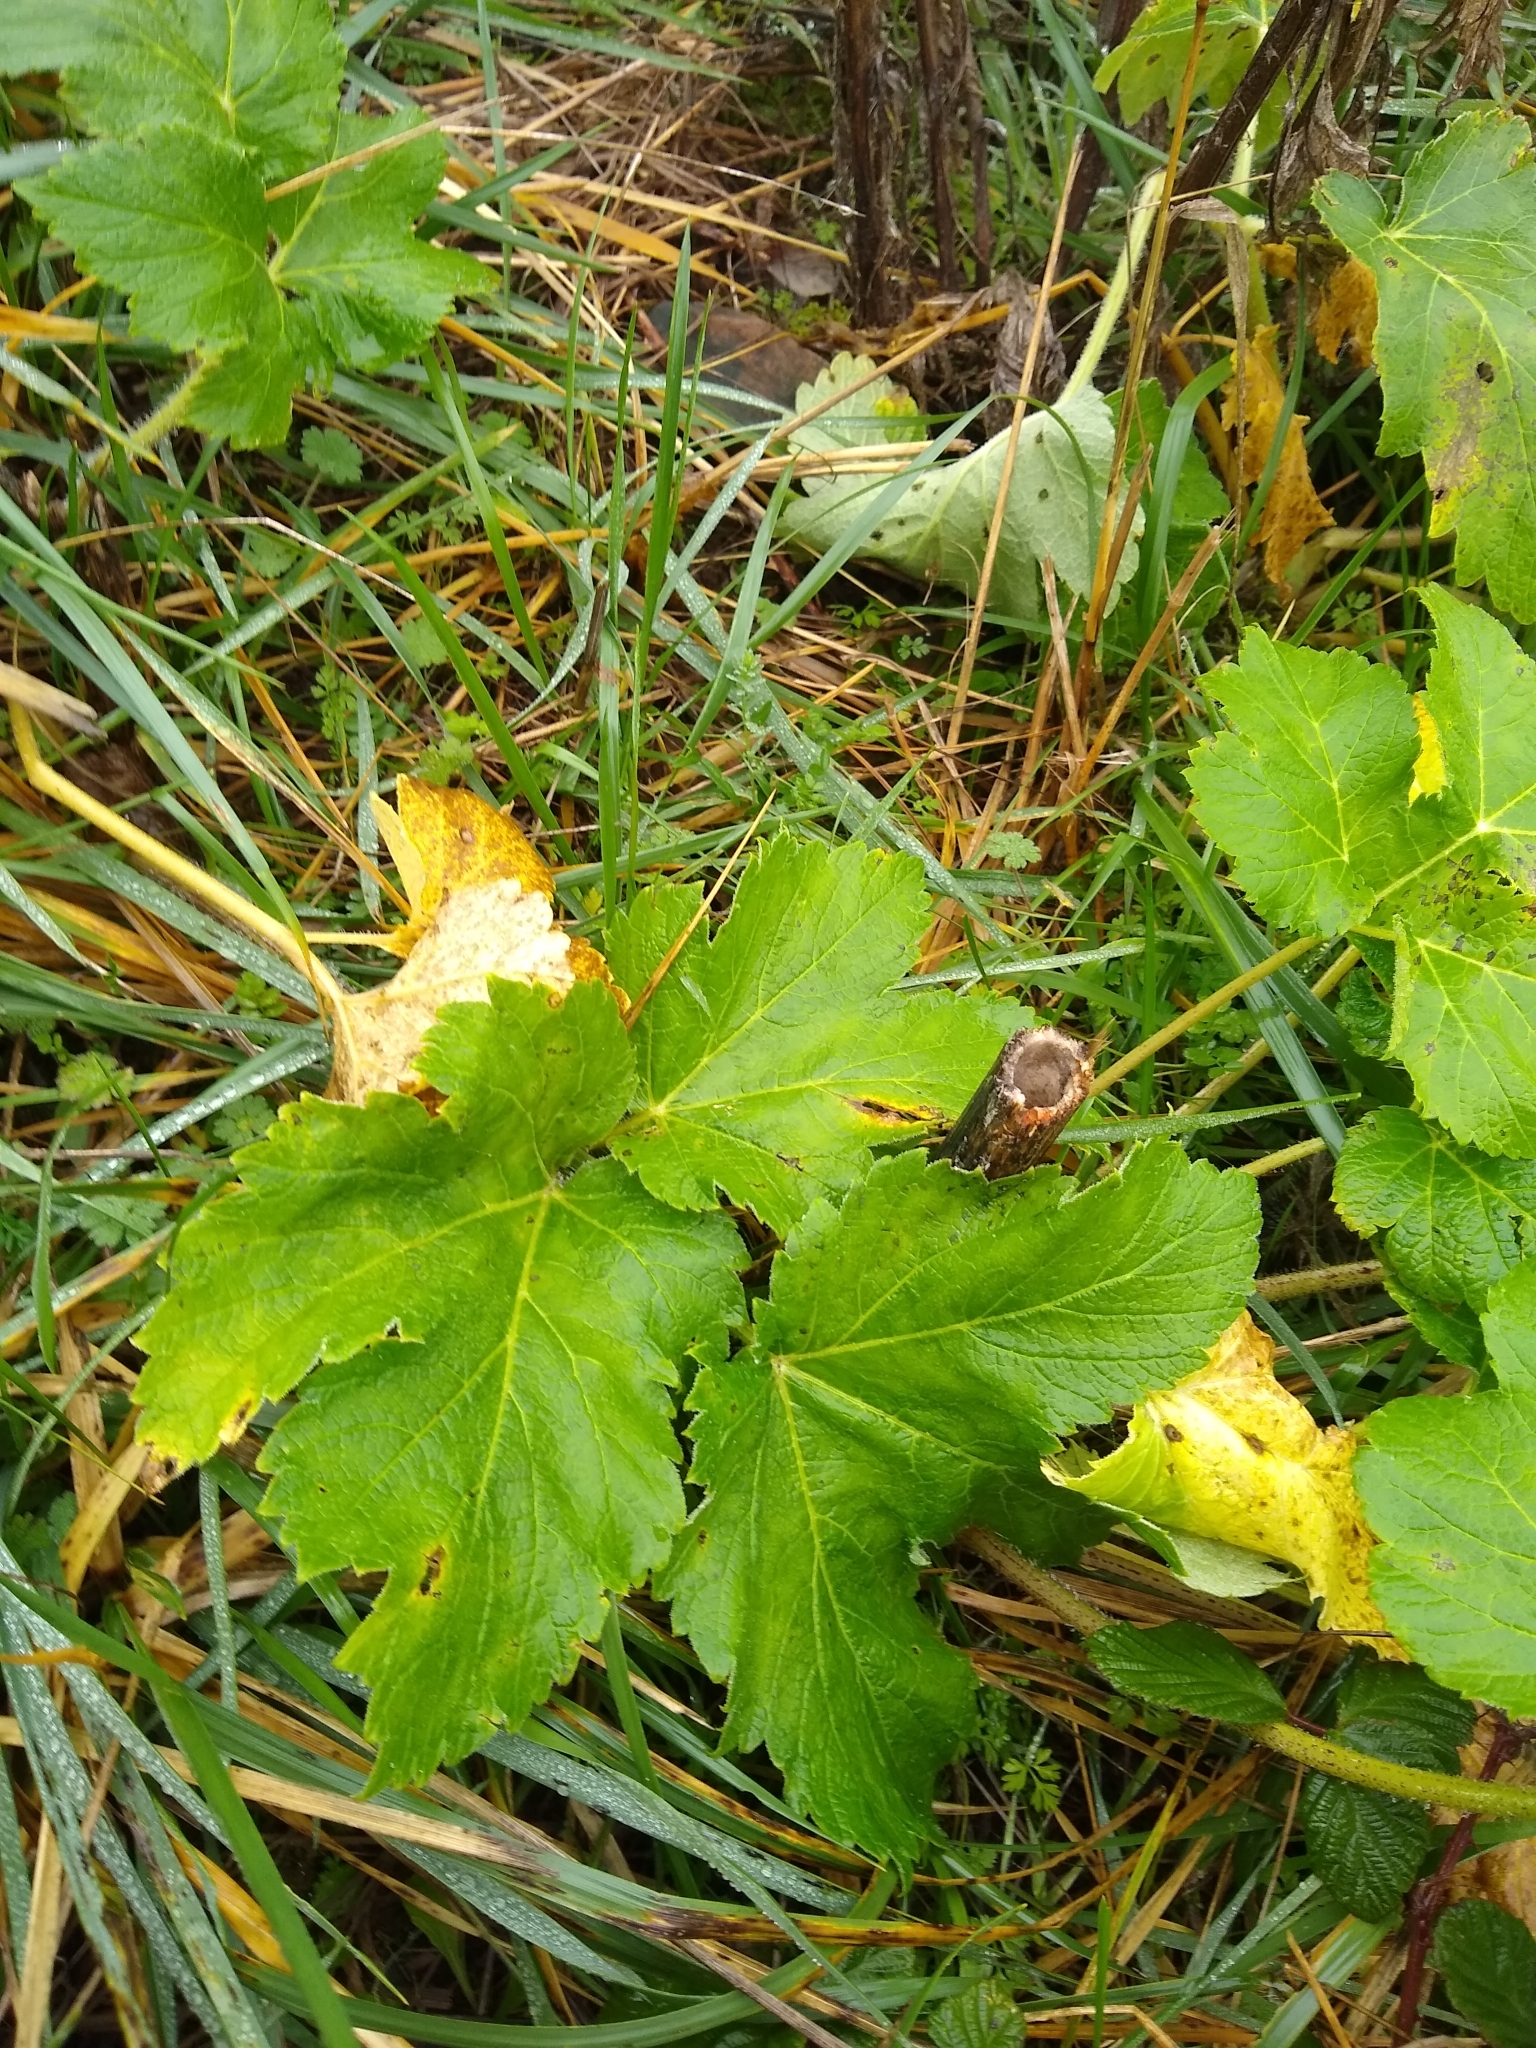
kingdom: Plantae
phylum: Tracheophyta
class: Magnoliopsida
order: Apiales
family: Apiaceae
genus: Heracleum
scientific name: Heracleum maximum
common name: American cow parsnip
